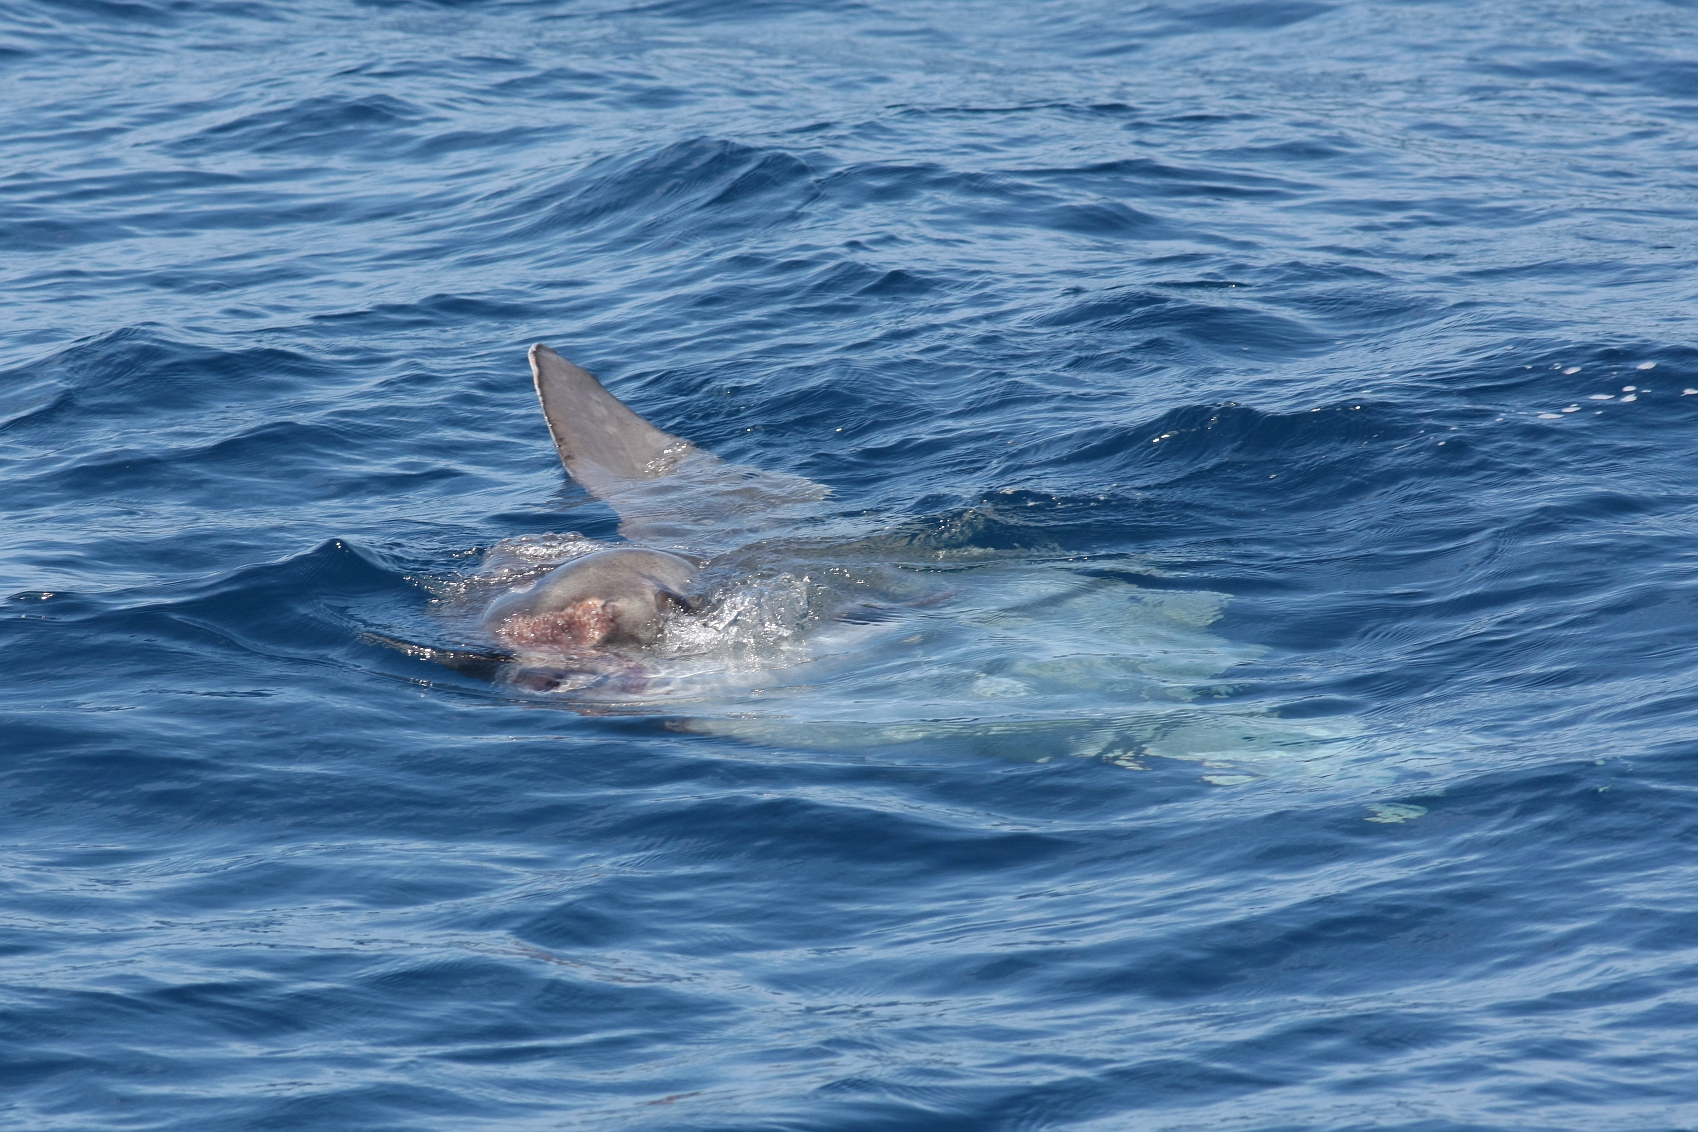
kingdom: Animalia
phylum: Chordata
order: Tetraodontiformes
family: Molidae
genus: Mola
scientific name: Mola mola
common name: Ocean sunfish
